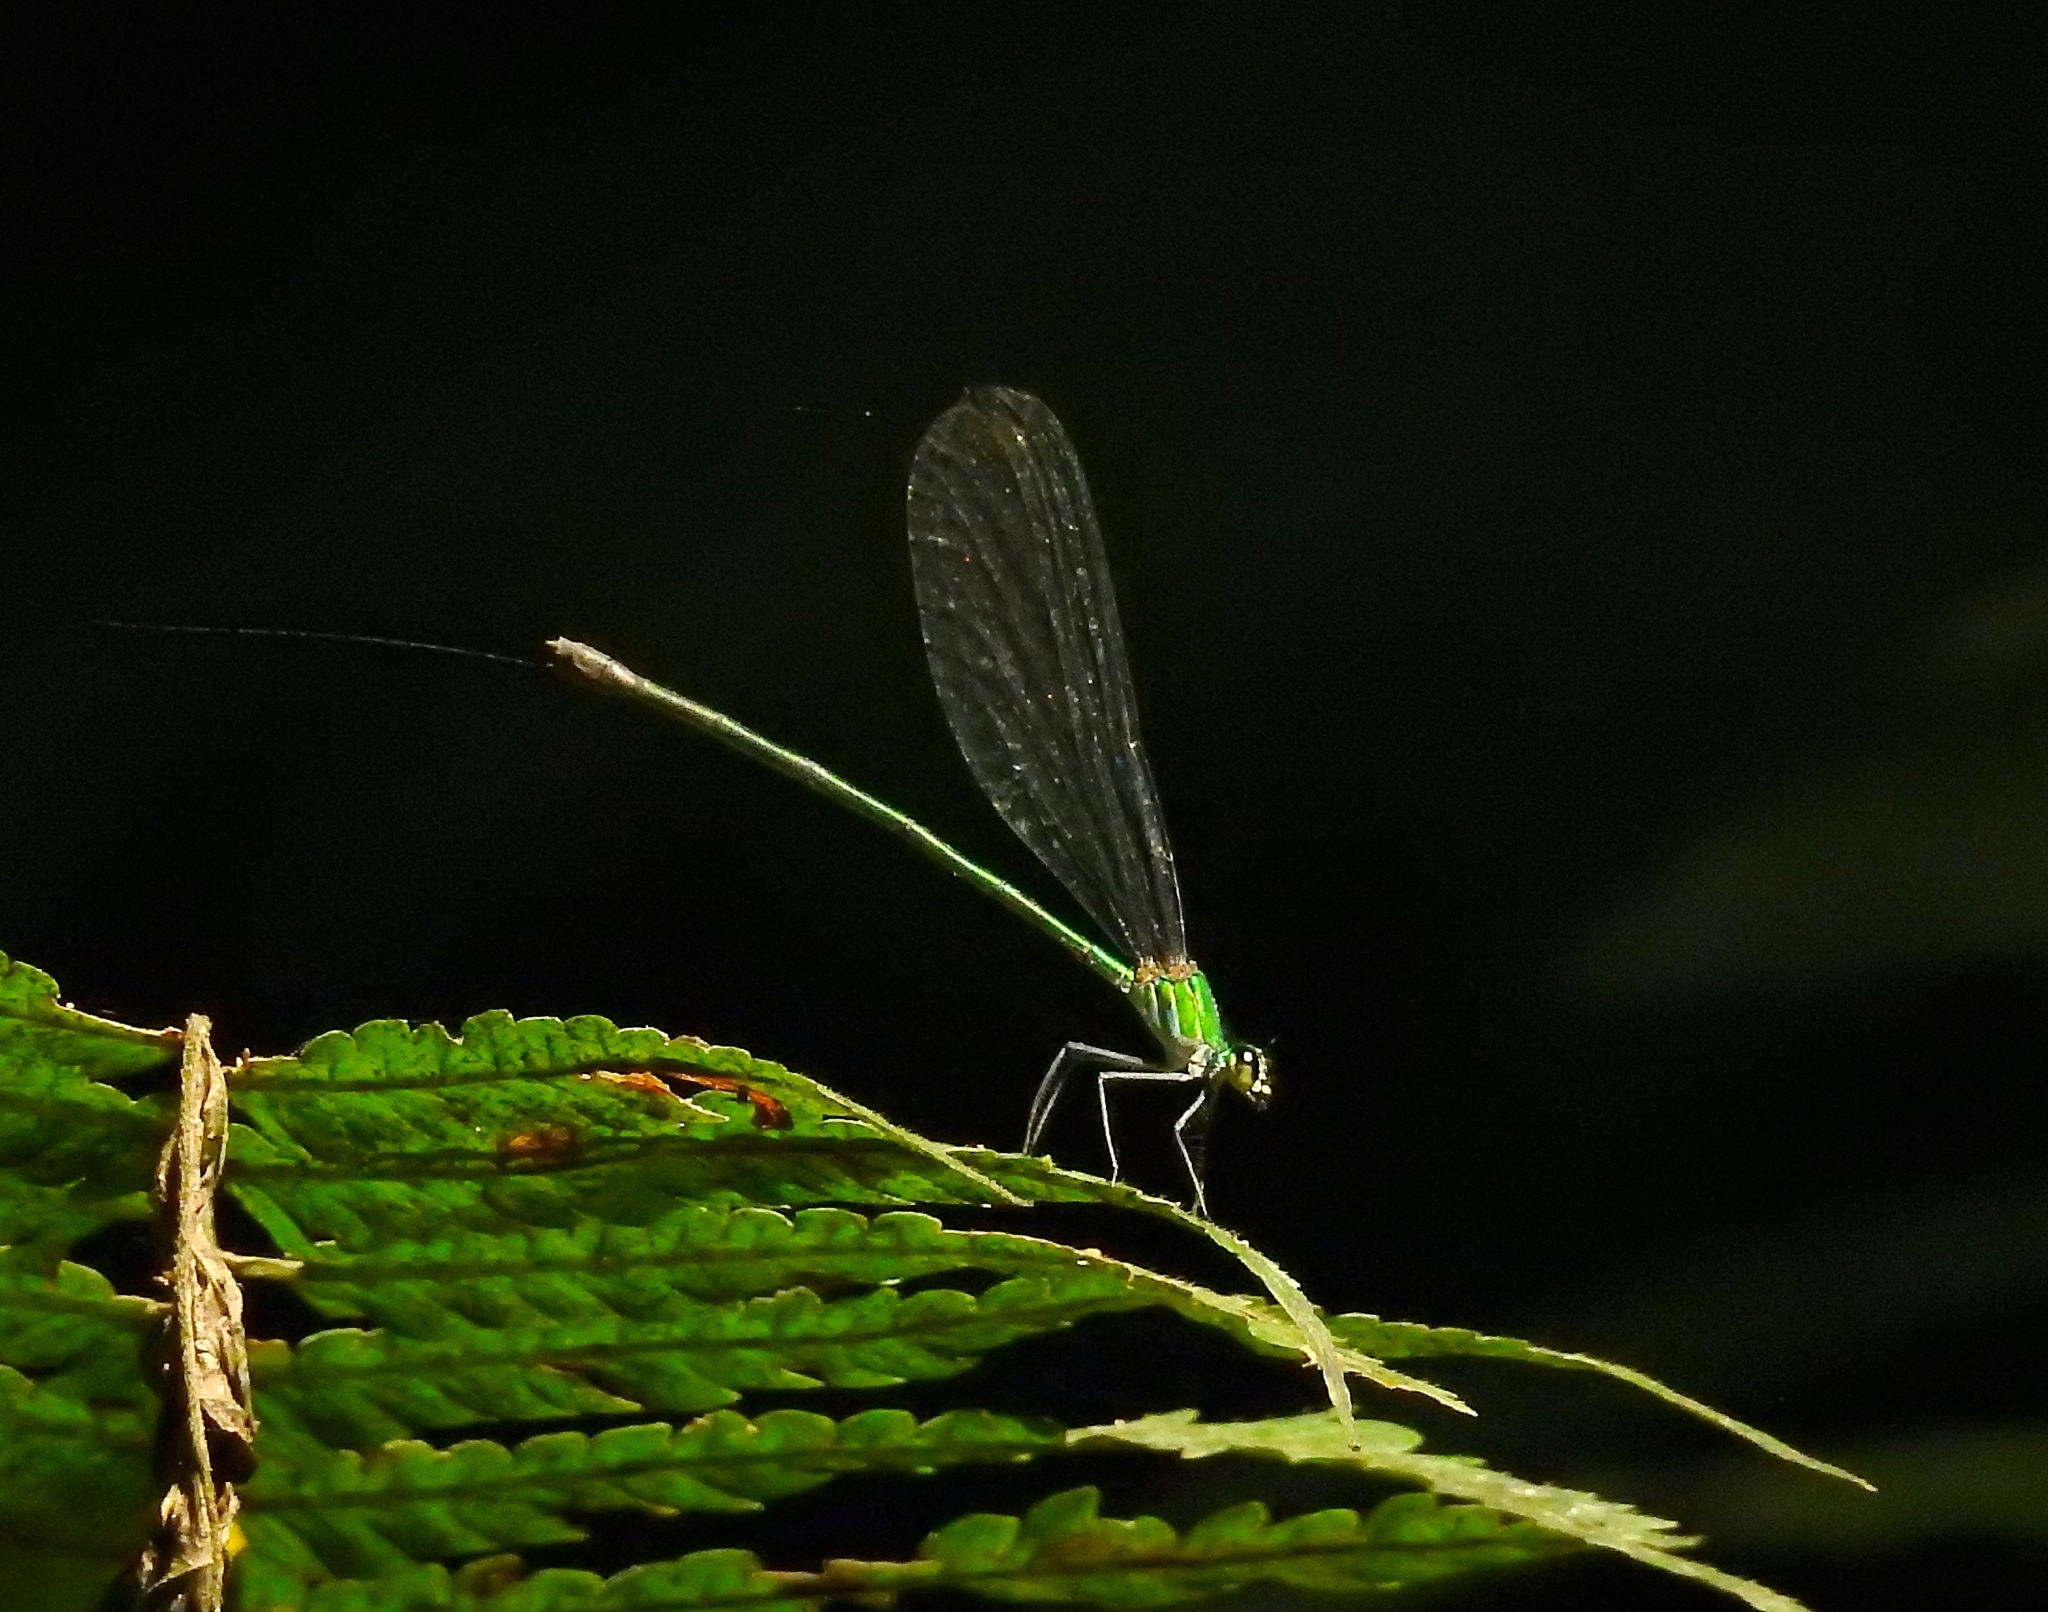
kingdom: Animalia
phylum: Arthropoda
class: Insecta
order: Odonata
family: Calopterygidae
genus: Vestalis
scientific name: Vestalis gracilis
